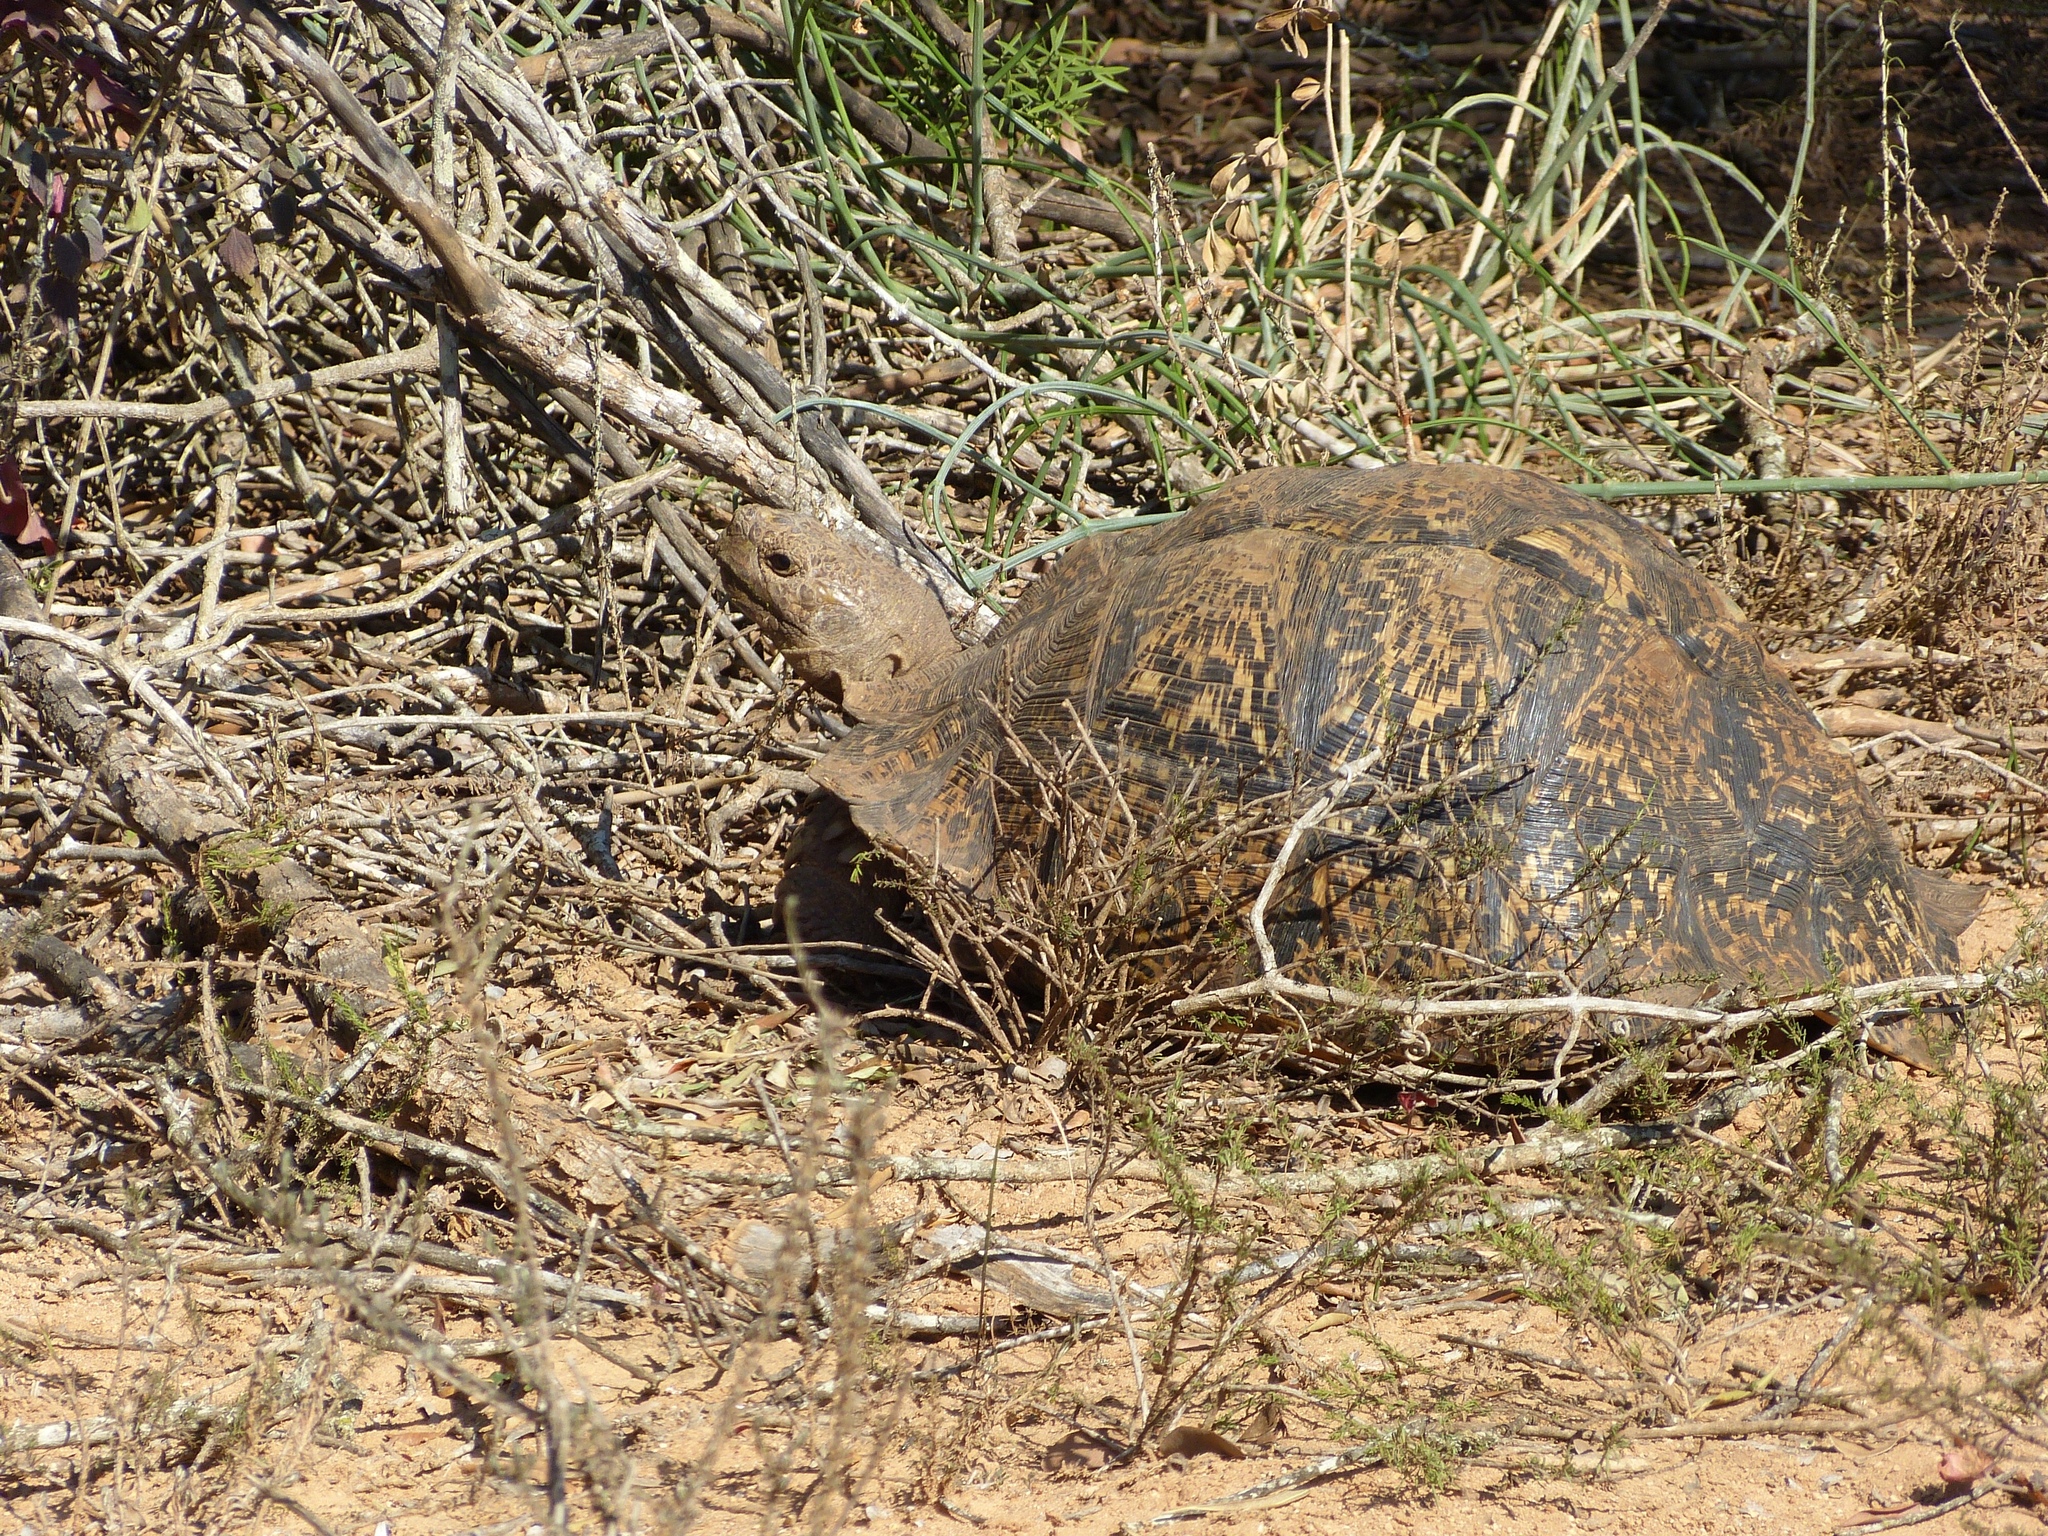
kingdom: Animalia
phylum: Chordata
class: Testudines
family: Testudinidae
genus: Stigmochelys
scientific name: Stigmochelys pardalis
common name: Leopard tortoise
